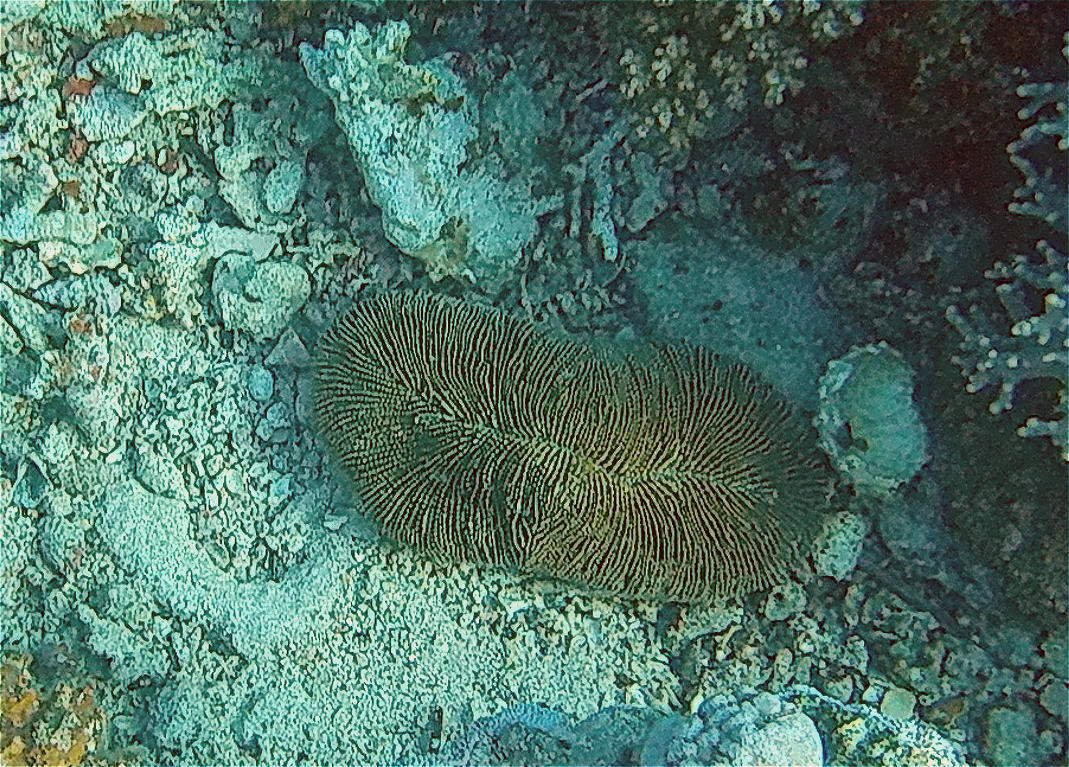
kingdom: Animalia
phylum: Cnidaria
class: Anthozoa
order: Scleractinia
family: Fungiidae
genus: Ctenactis
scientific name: Ctenactis crassa
